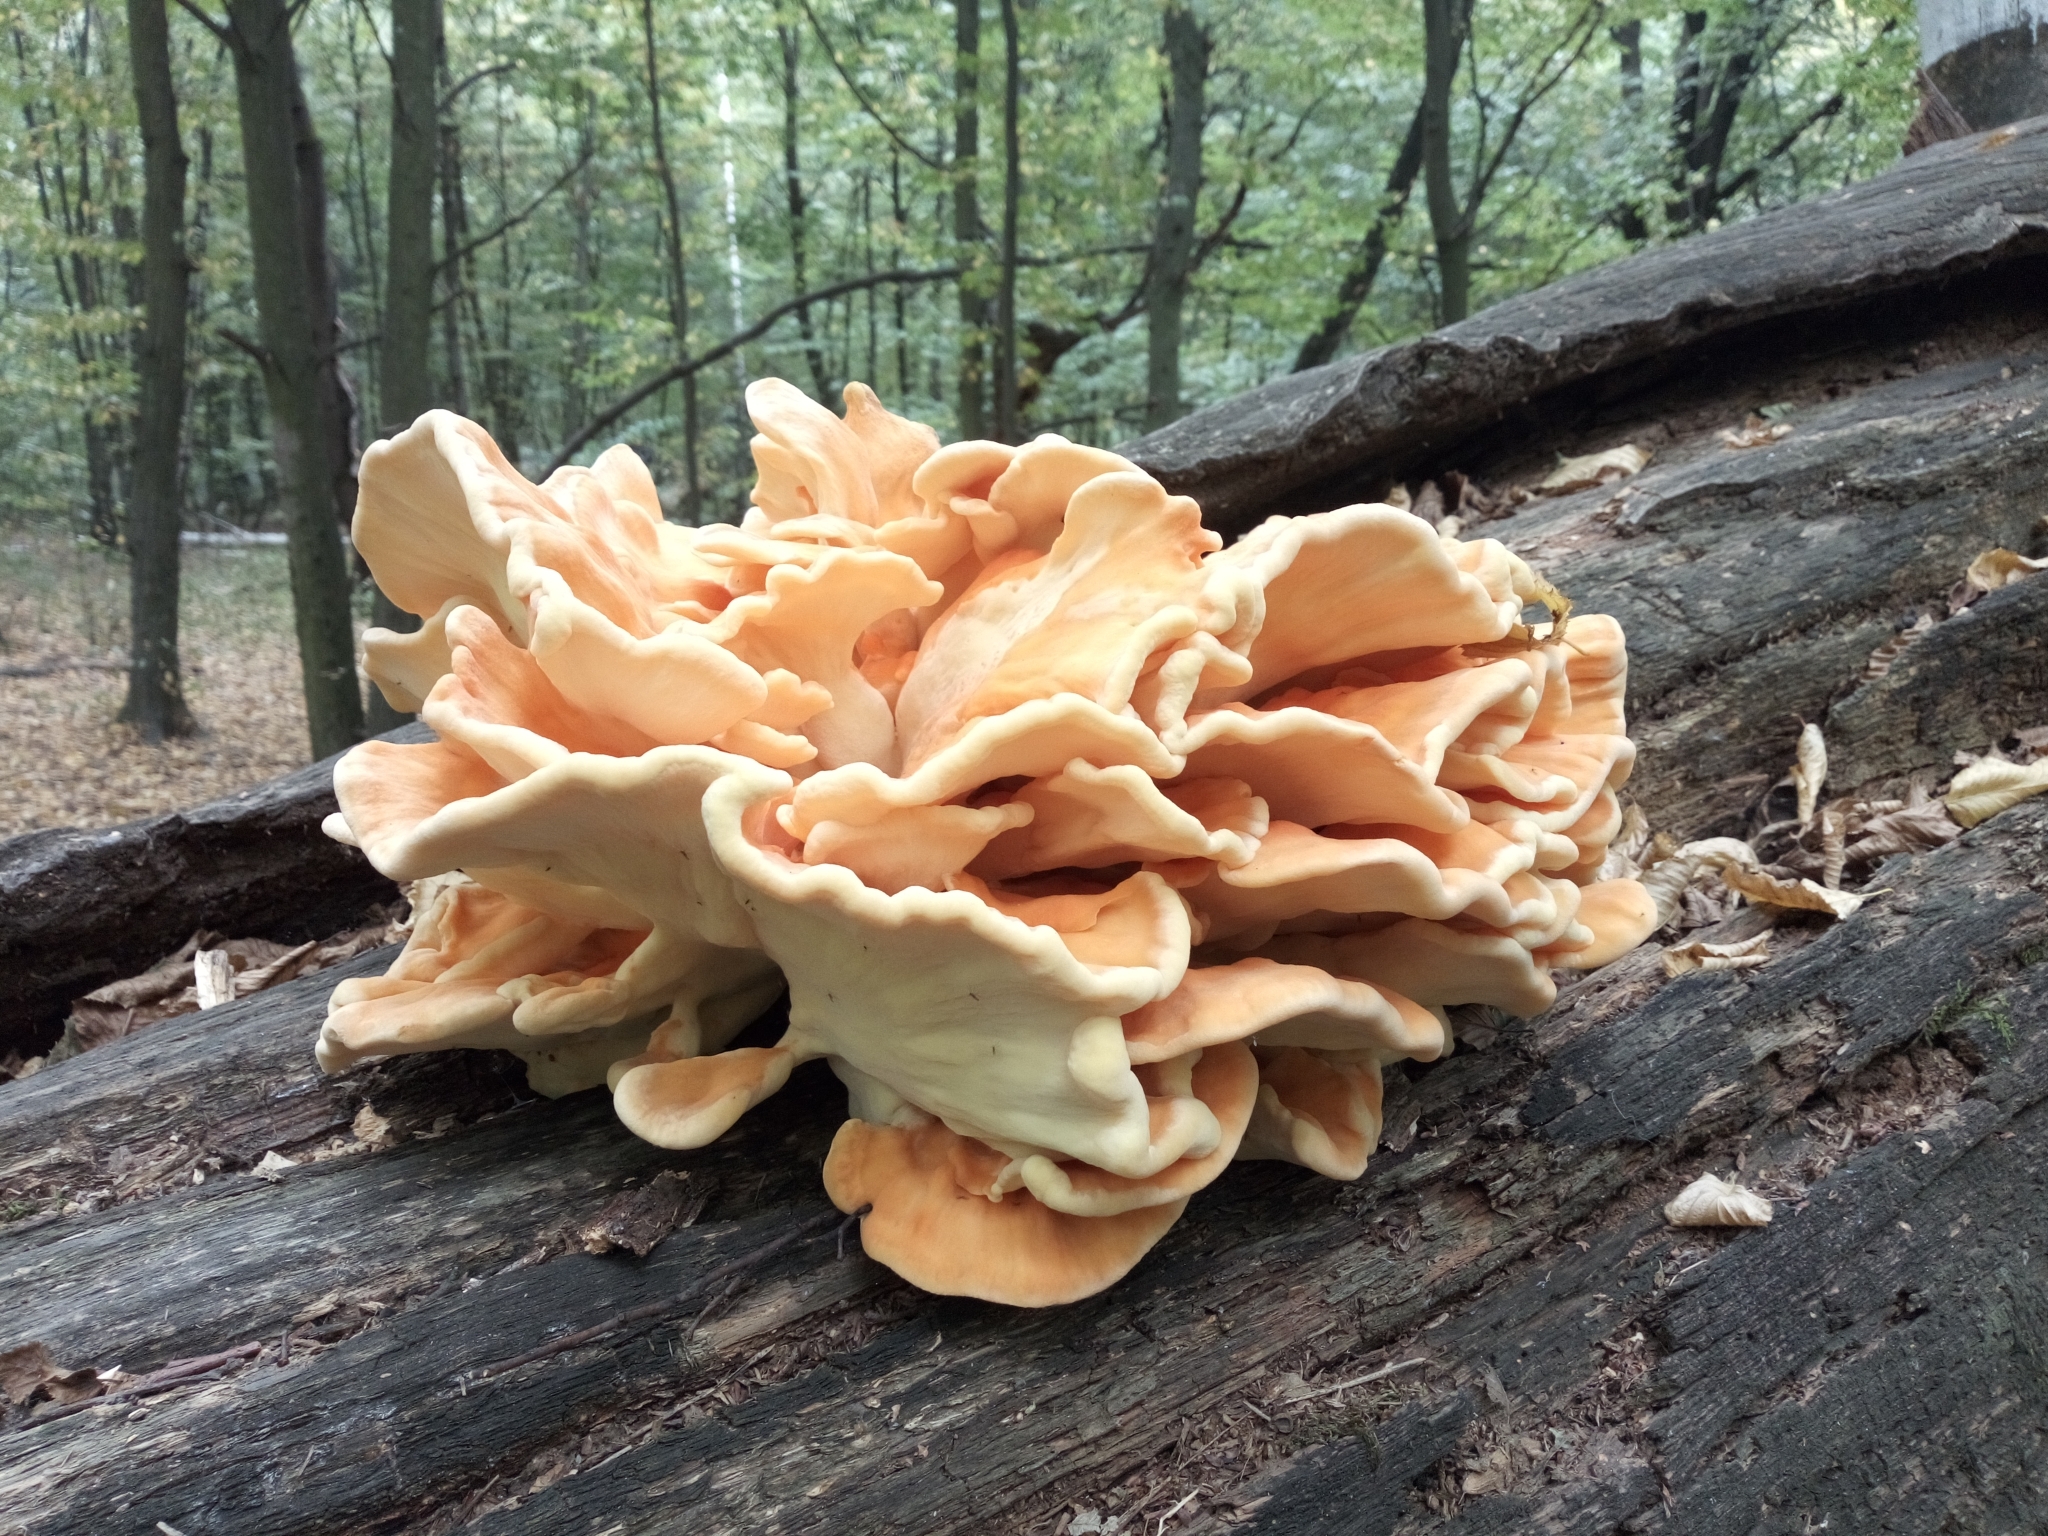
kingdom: Fungi
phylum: Basidiomycota
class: Agaricomycetes
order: Polyporales
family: Laetiporaceae
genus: Laetiporus
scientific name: Laetiporus sulphureus
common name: Chicken of the woods
